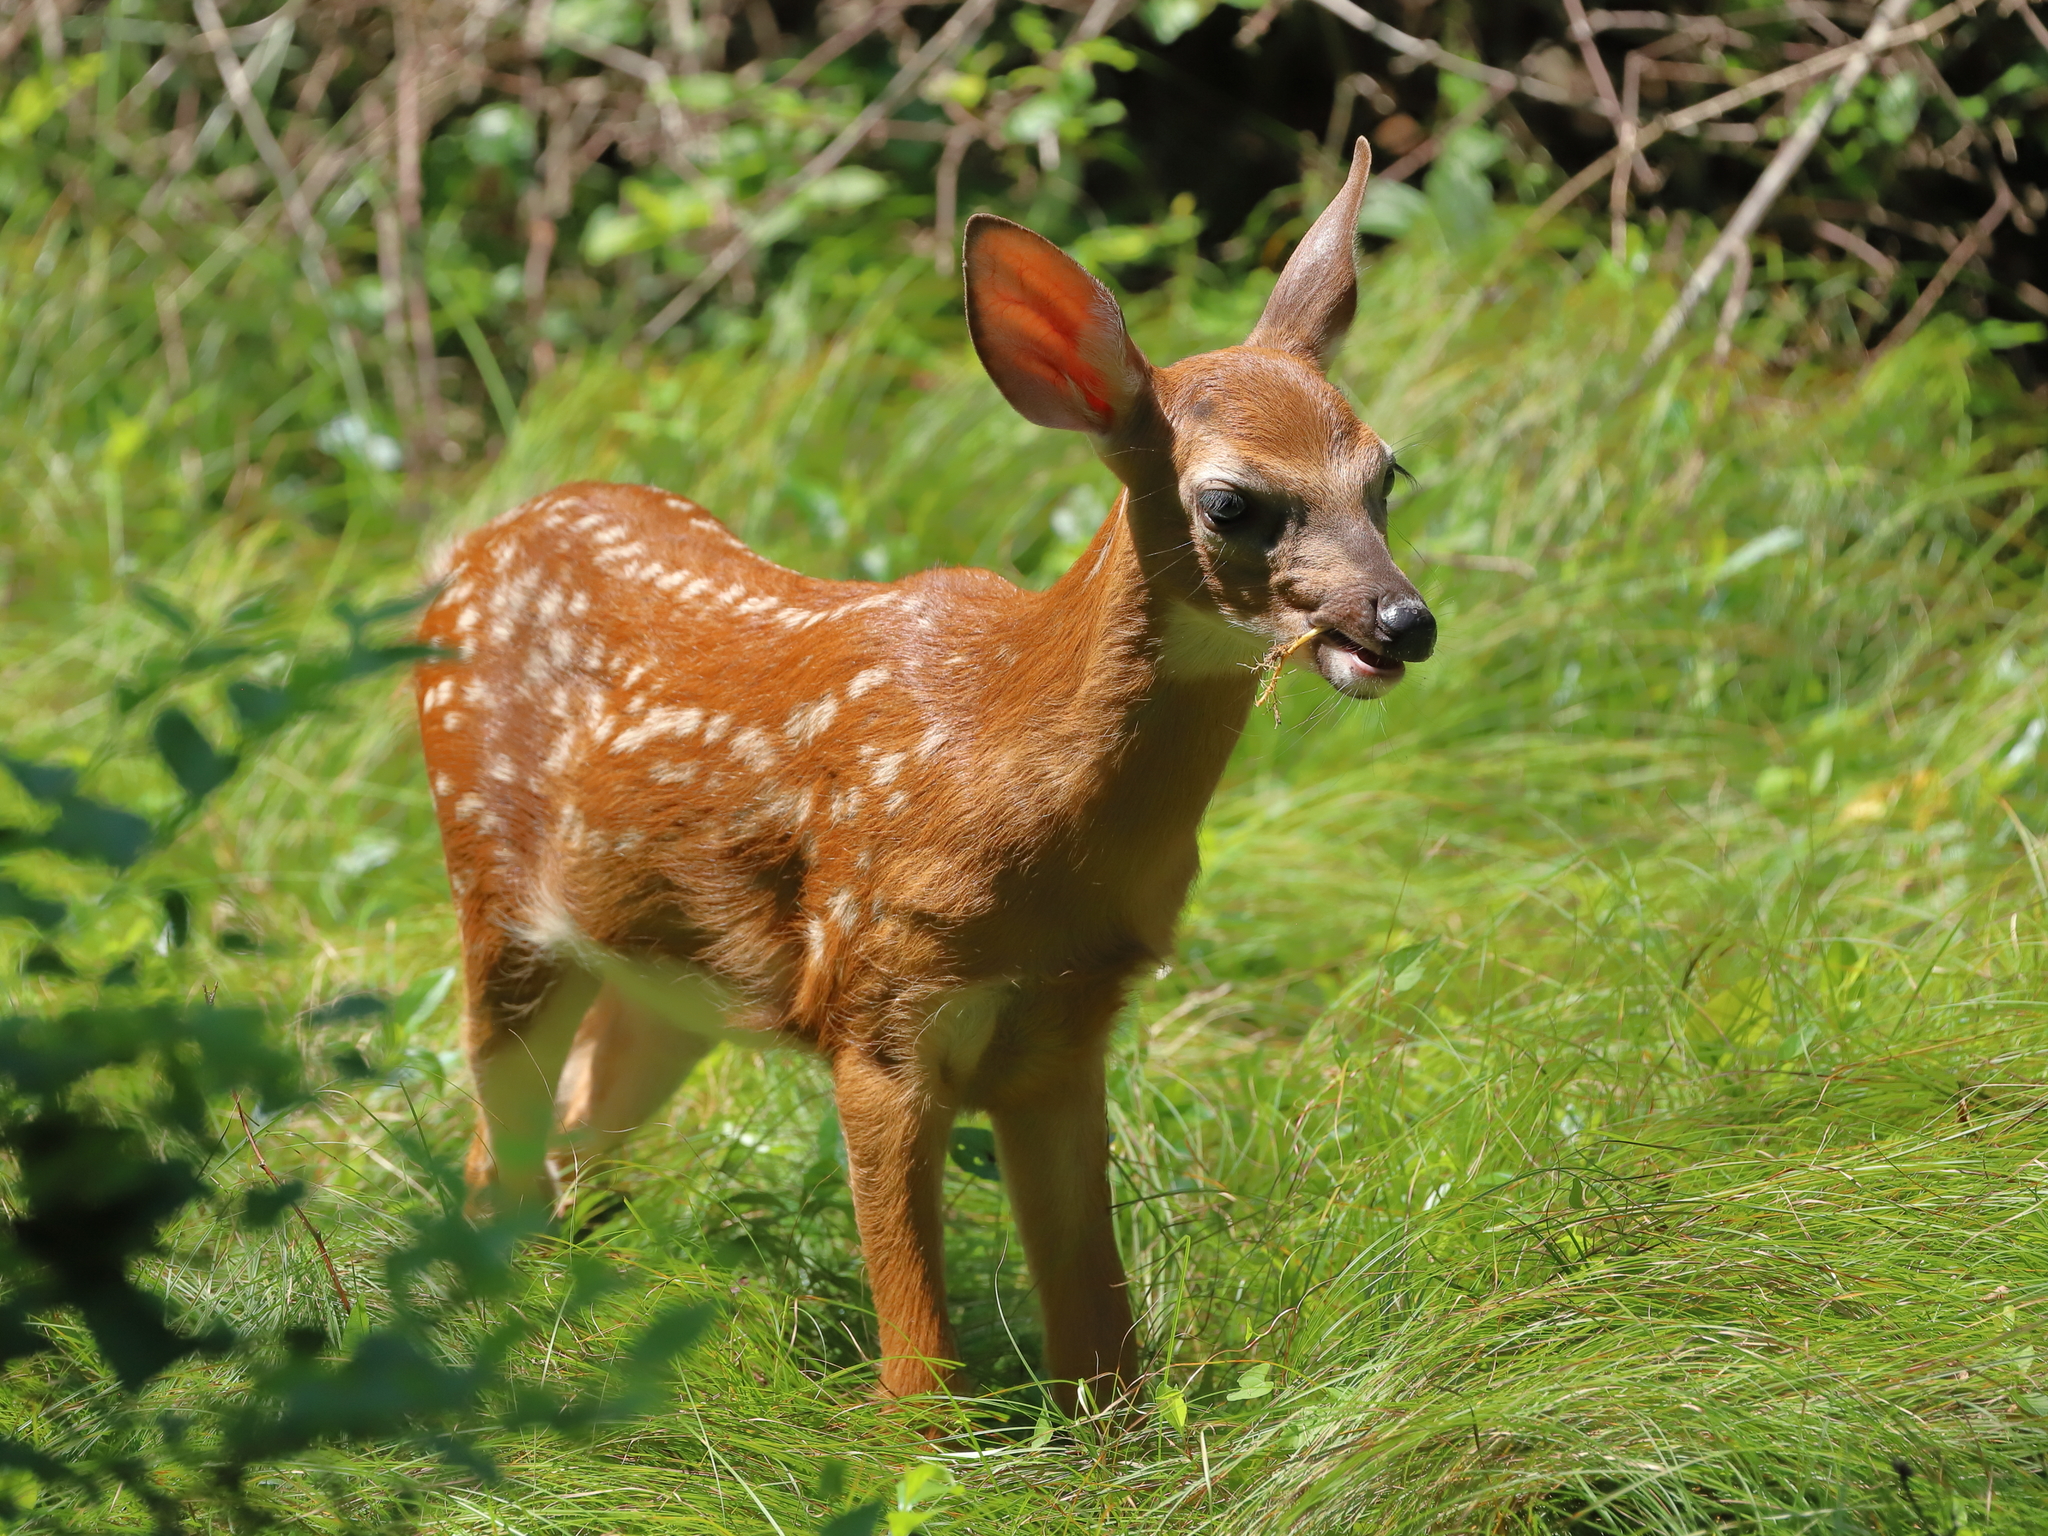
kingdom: Animalia
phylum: Chordata
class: Mammalia
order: Artiodactyla
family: Cervidae
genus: Odocoileus
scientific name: Odocoileus virginianus
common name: White-tailed deer
